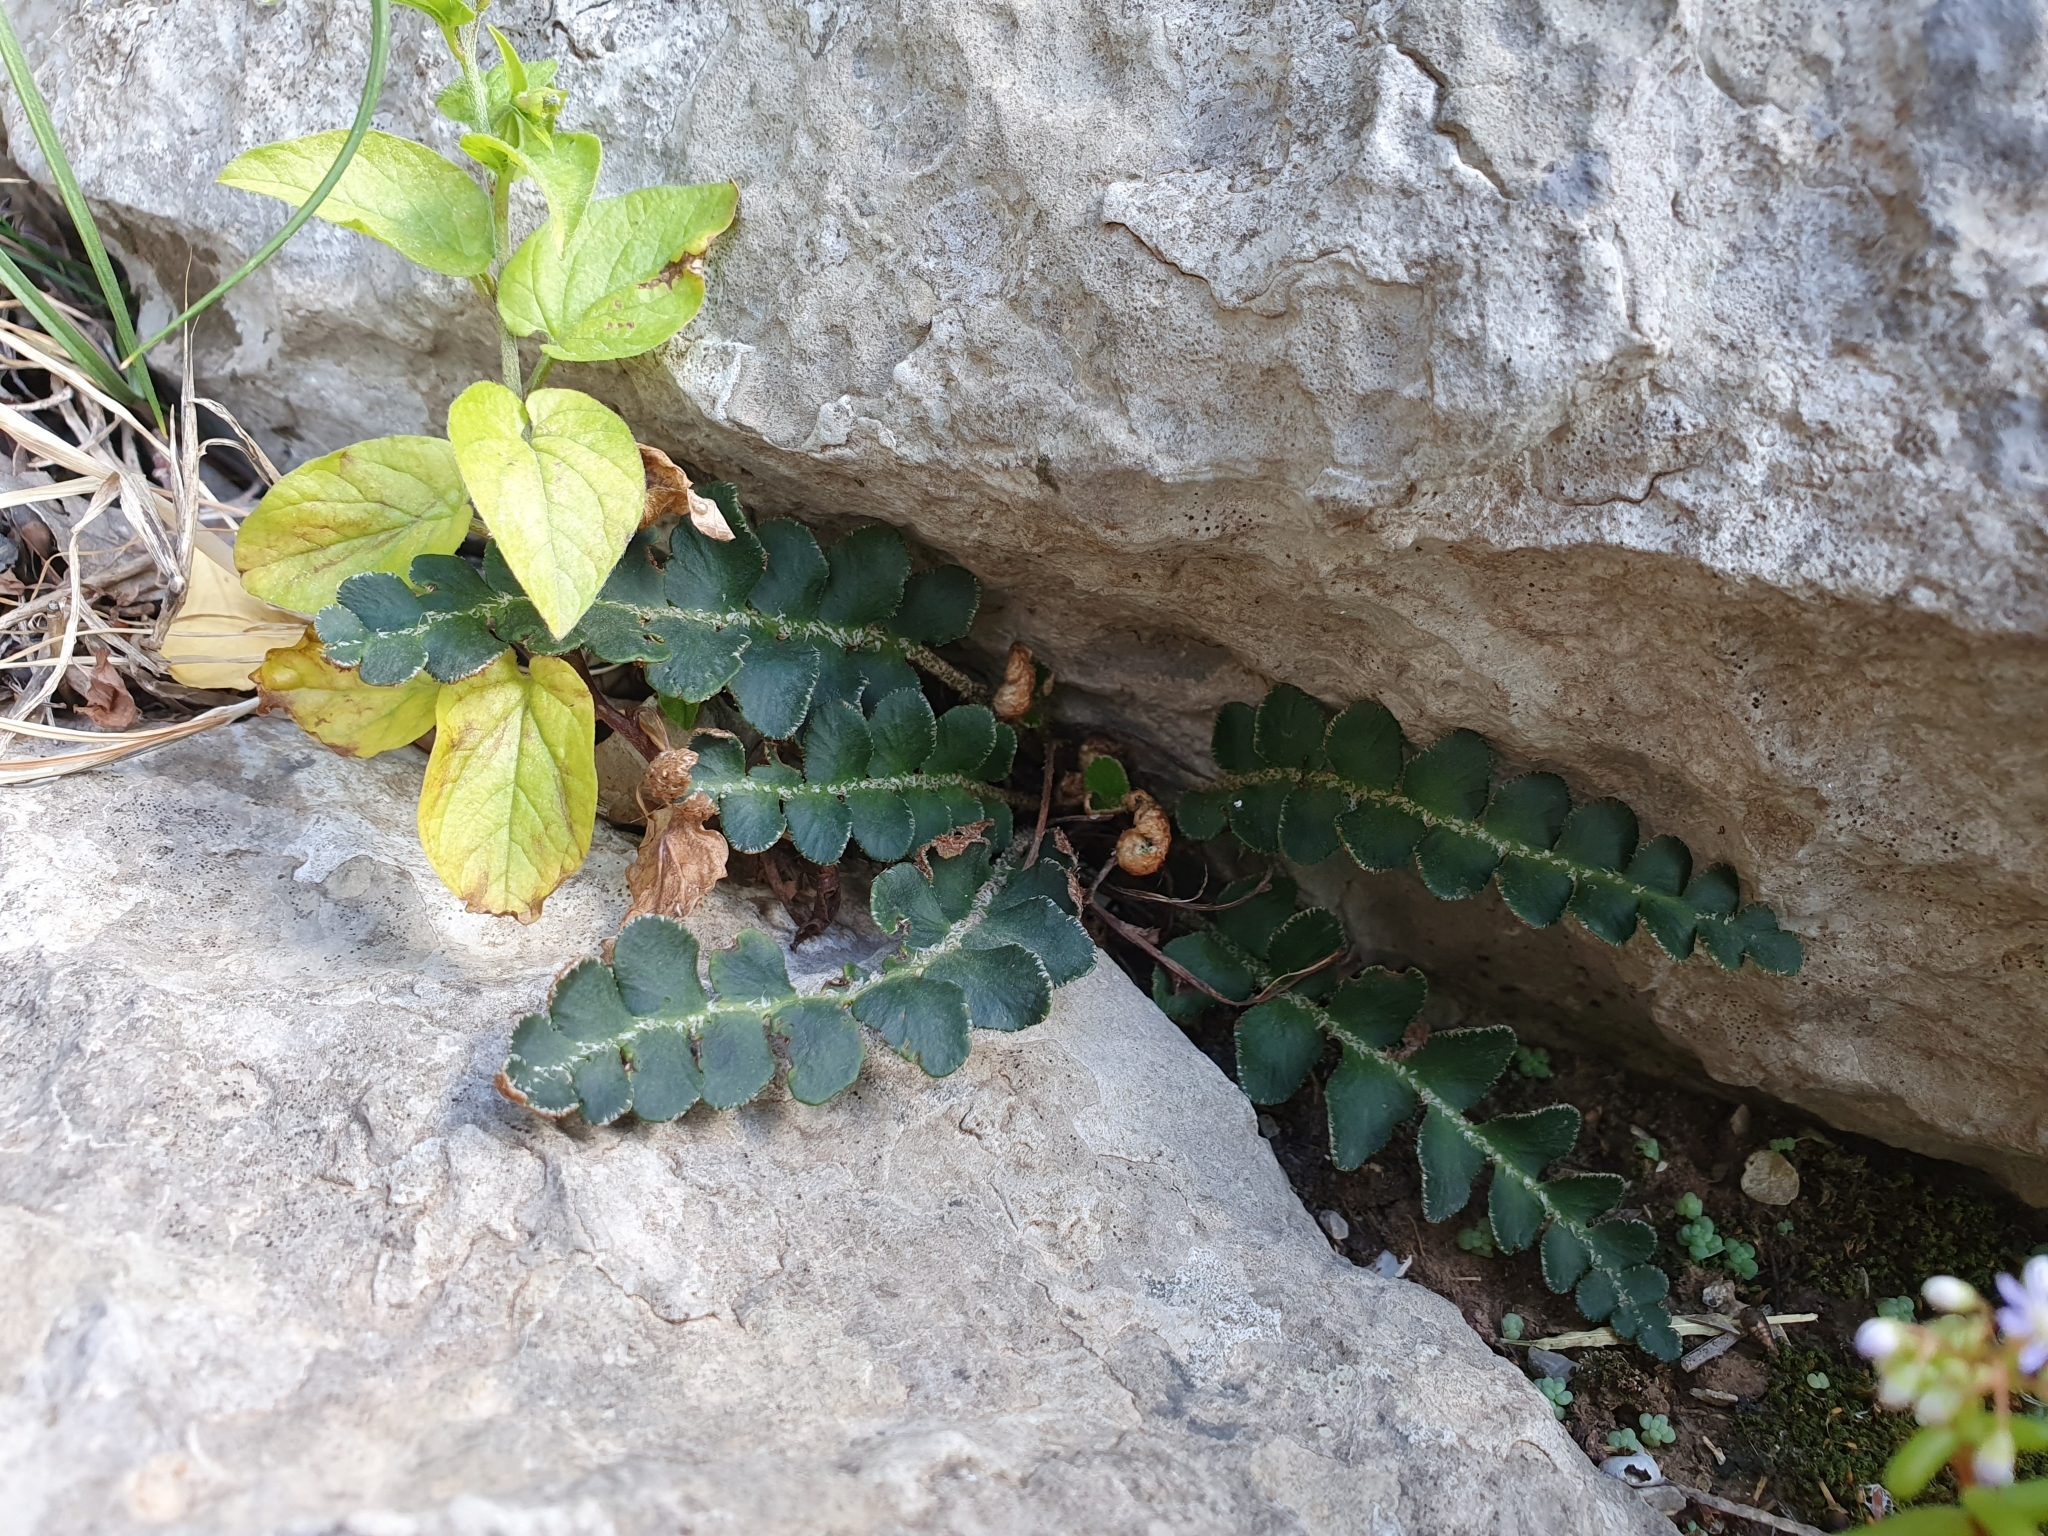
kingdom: Plantae
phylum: Tracheophyta
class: Polypodiopsida
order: Polypodiales
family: Aspleniaceae
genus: Asplenium
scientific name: Asplenium ceterach
